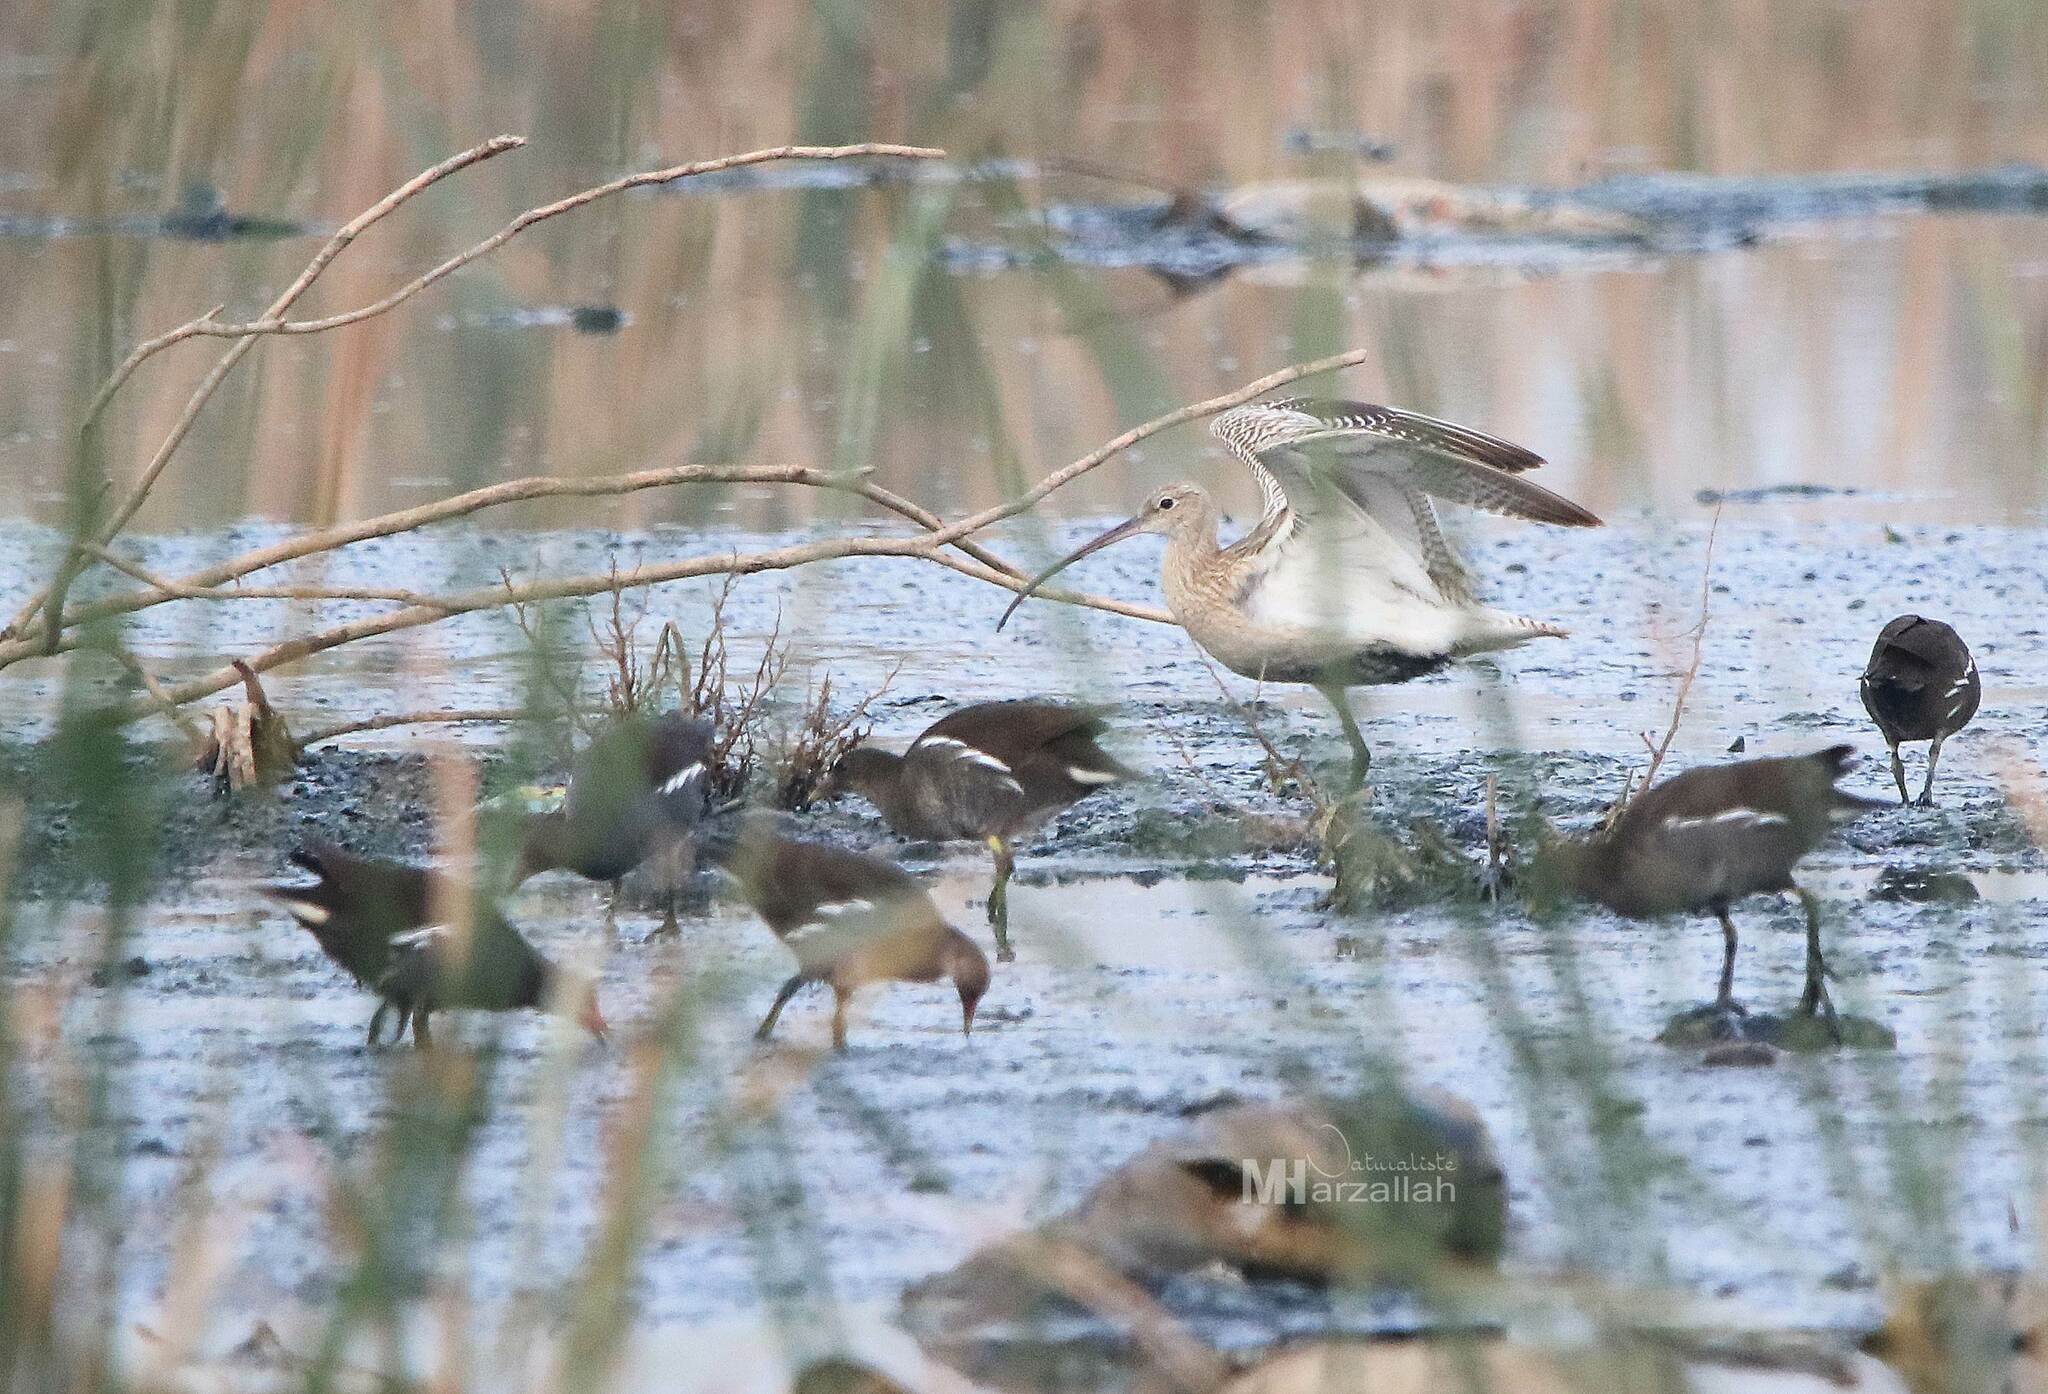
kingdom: Animalia
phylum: Chordata
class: Aves
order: Charadriiformes
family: Scolopacidae
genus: Numenius
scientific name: Numenius arquata
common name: Eurasian curlew
